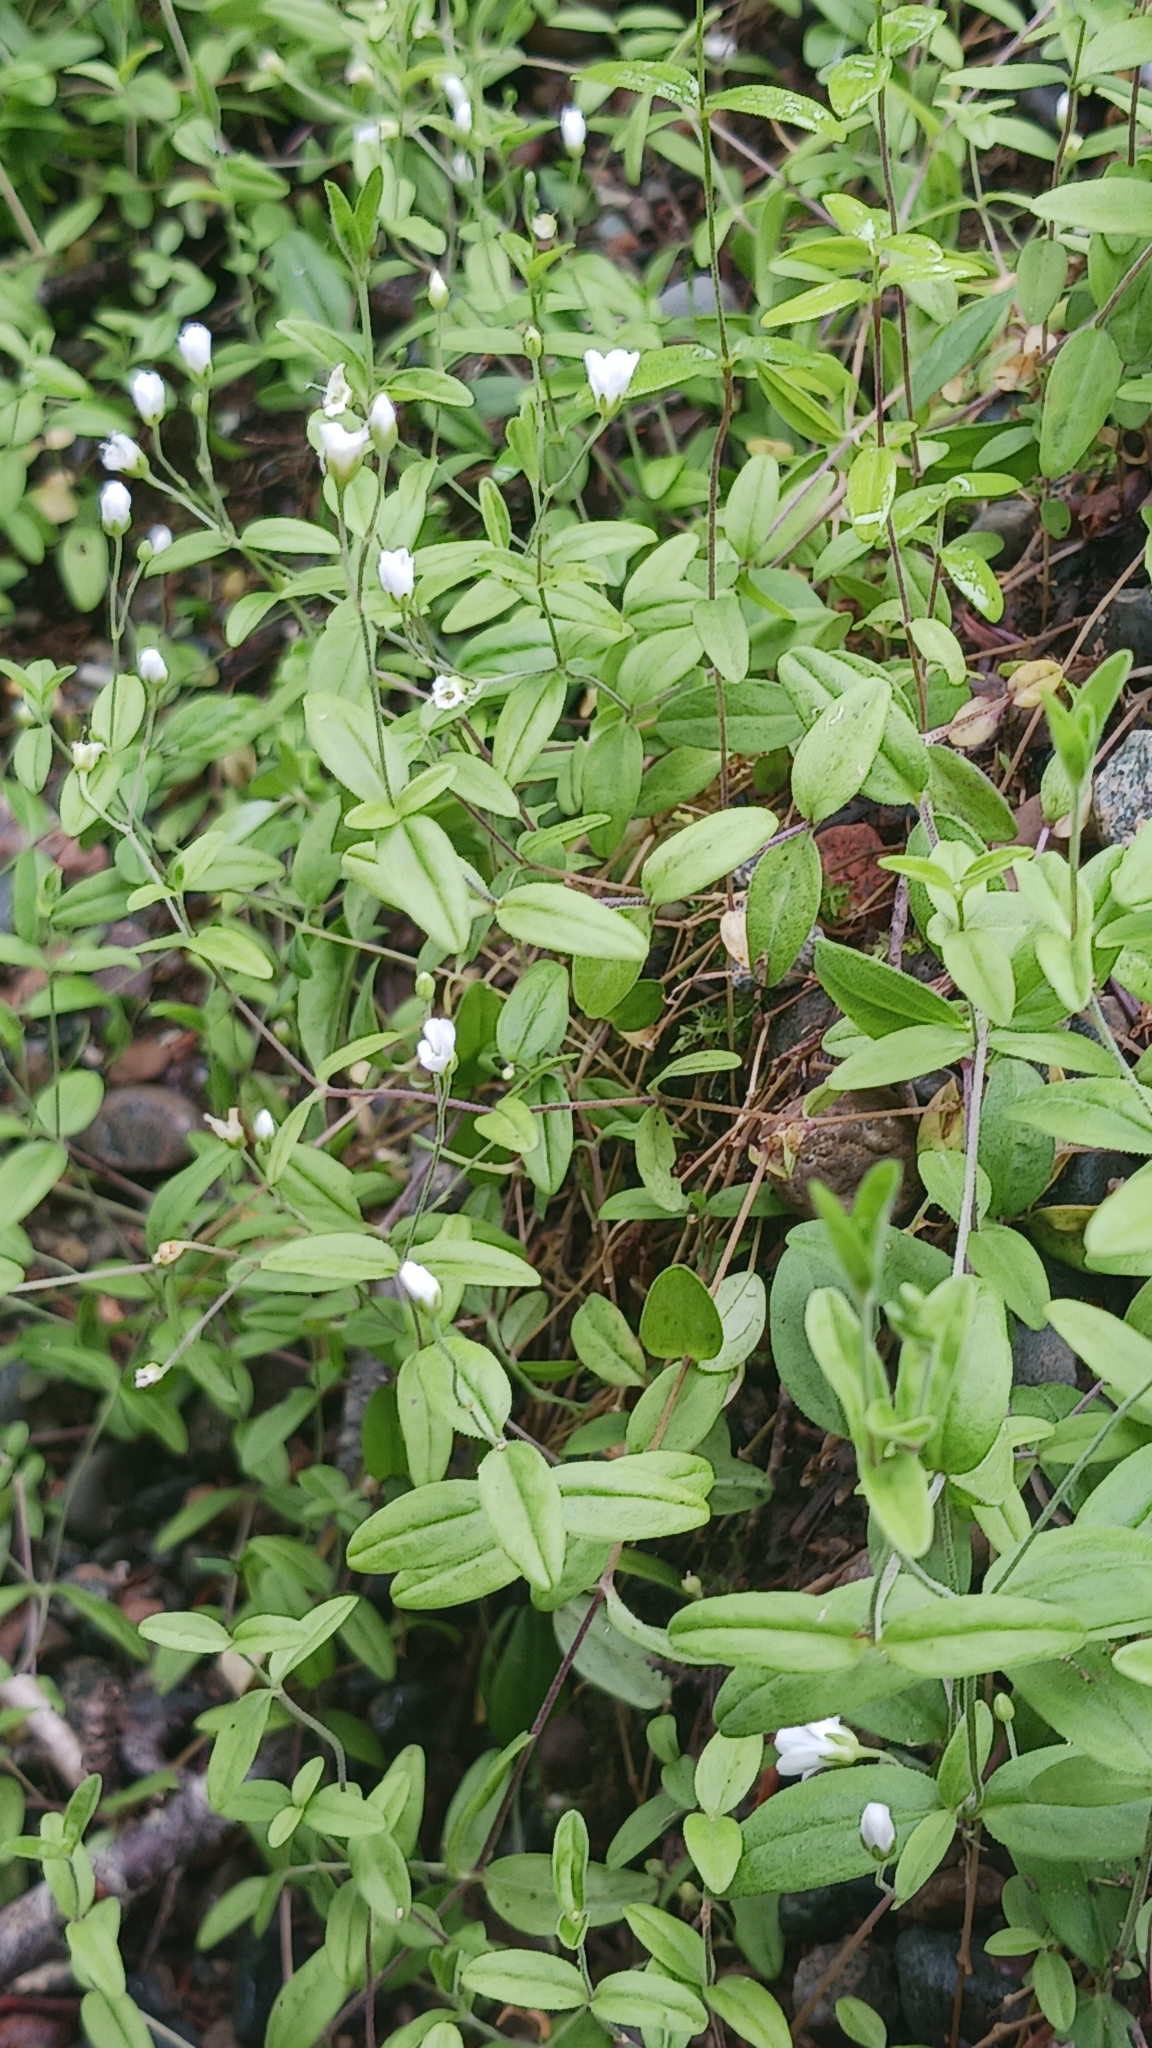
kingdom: Plantae
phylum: Tracheophyta
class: Magnoliopsida
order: Caryophyllales
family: Caryophyllaceae
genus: Moehringia
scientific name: Moehringia lateriflora
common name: Blunt-leaved sandwort
